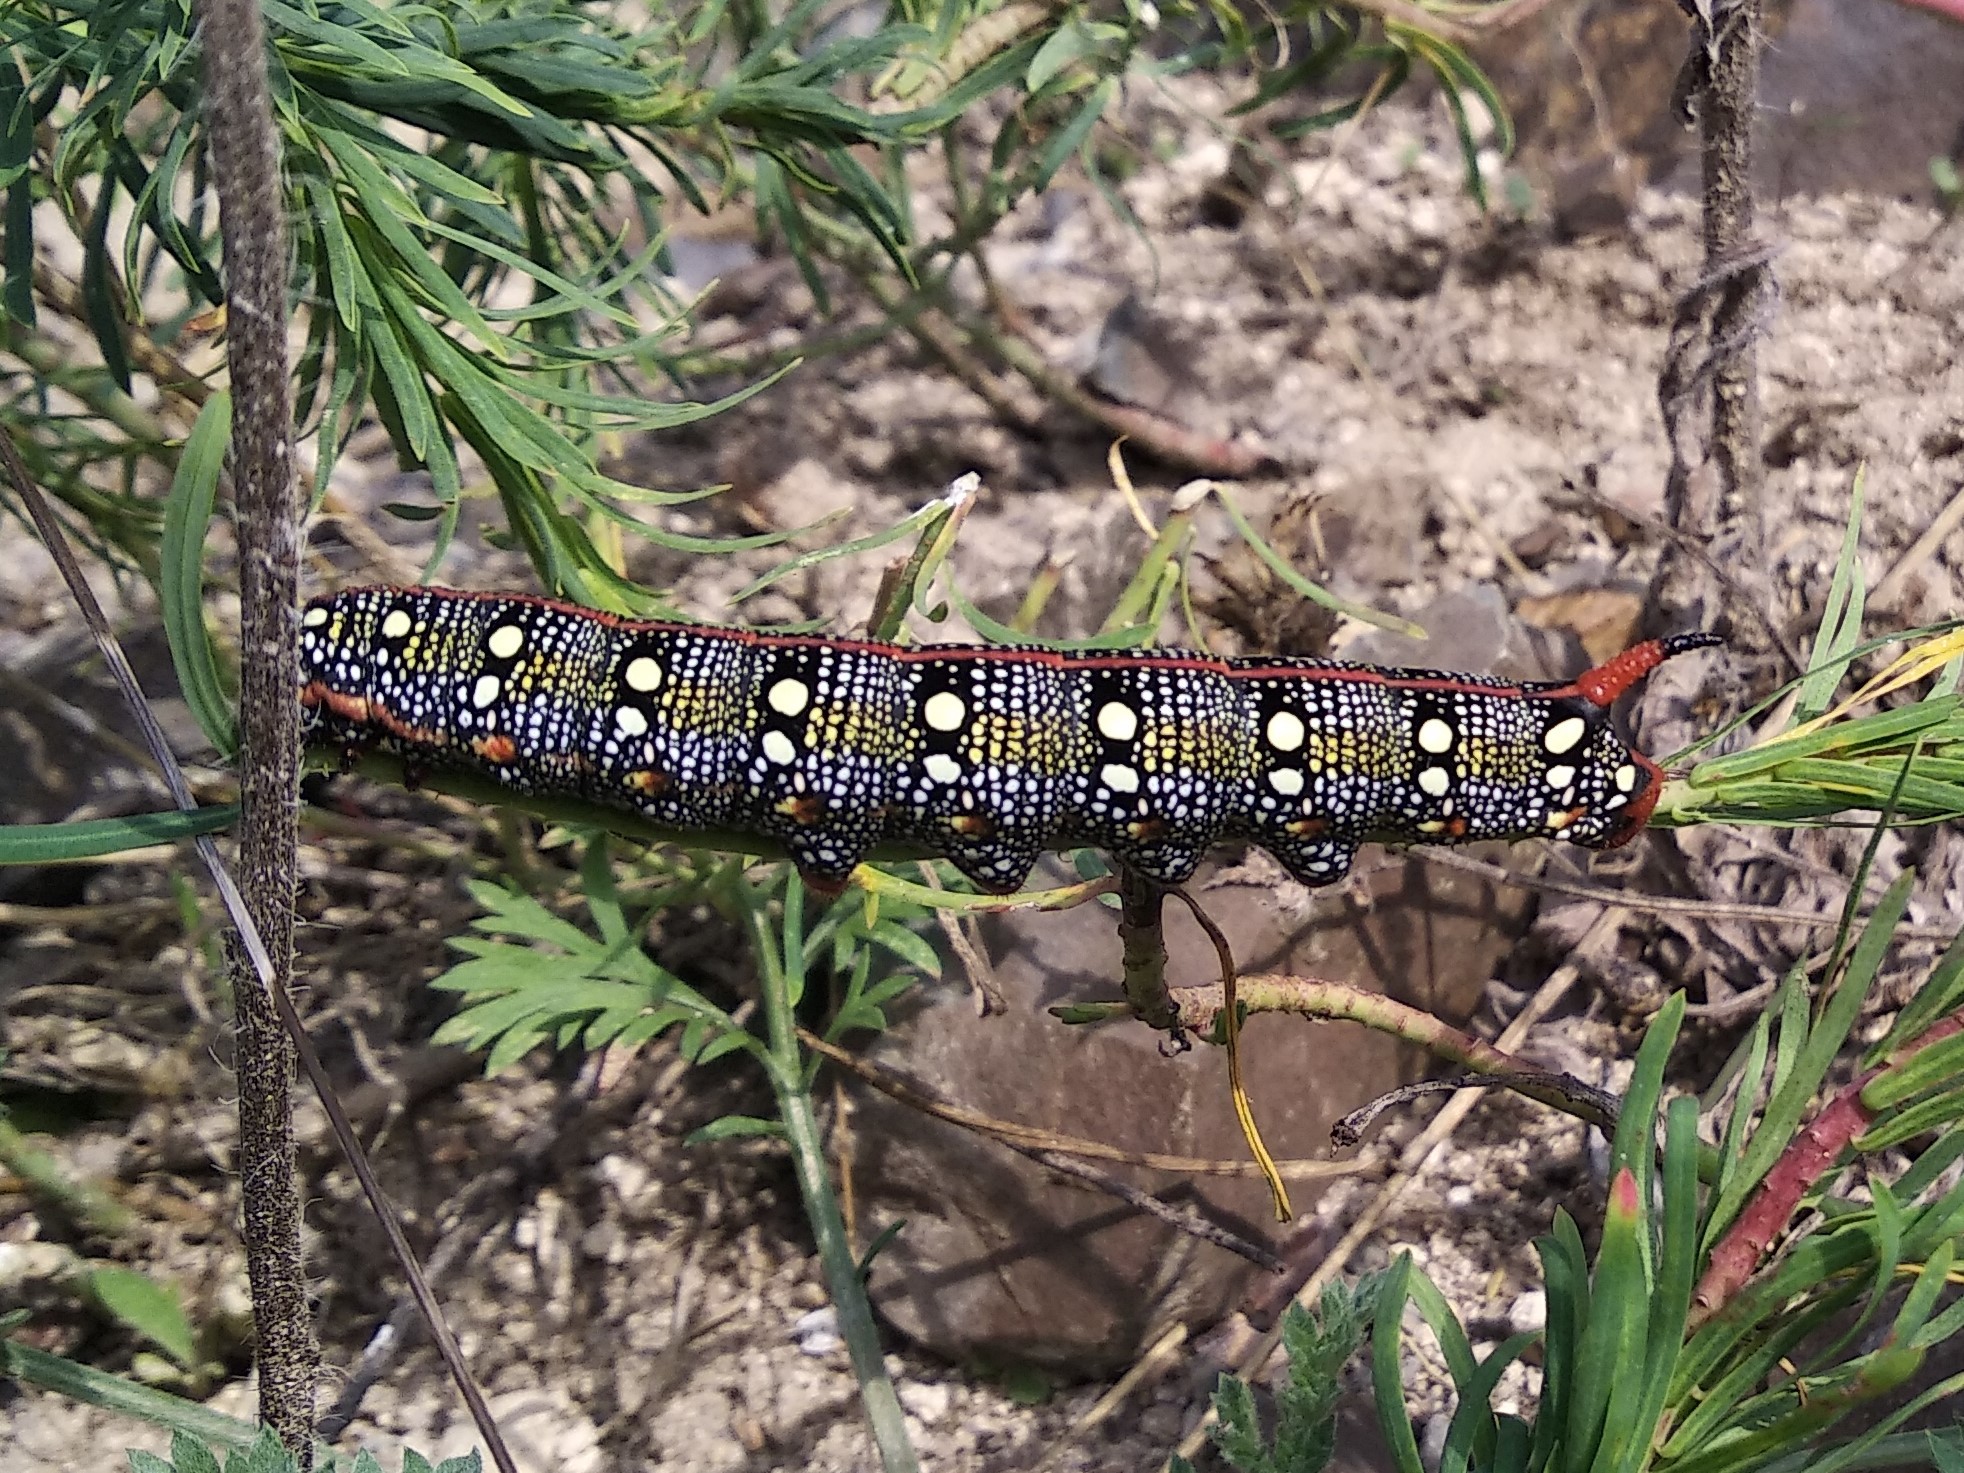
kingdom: Animalia
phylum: Arthropoda
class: Insecta
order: Lepidoptera
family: Sphingidae
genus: Hyles
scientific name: Hyles euphorbiae
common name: Spurge hawk-moth
